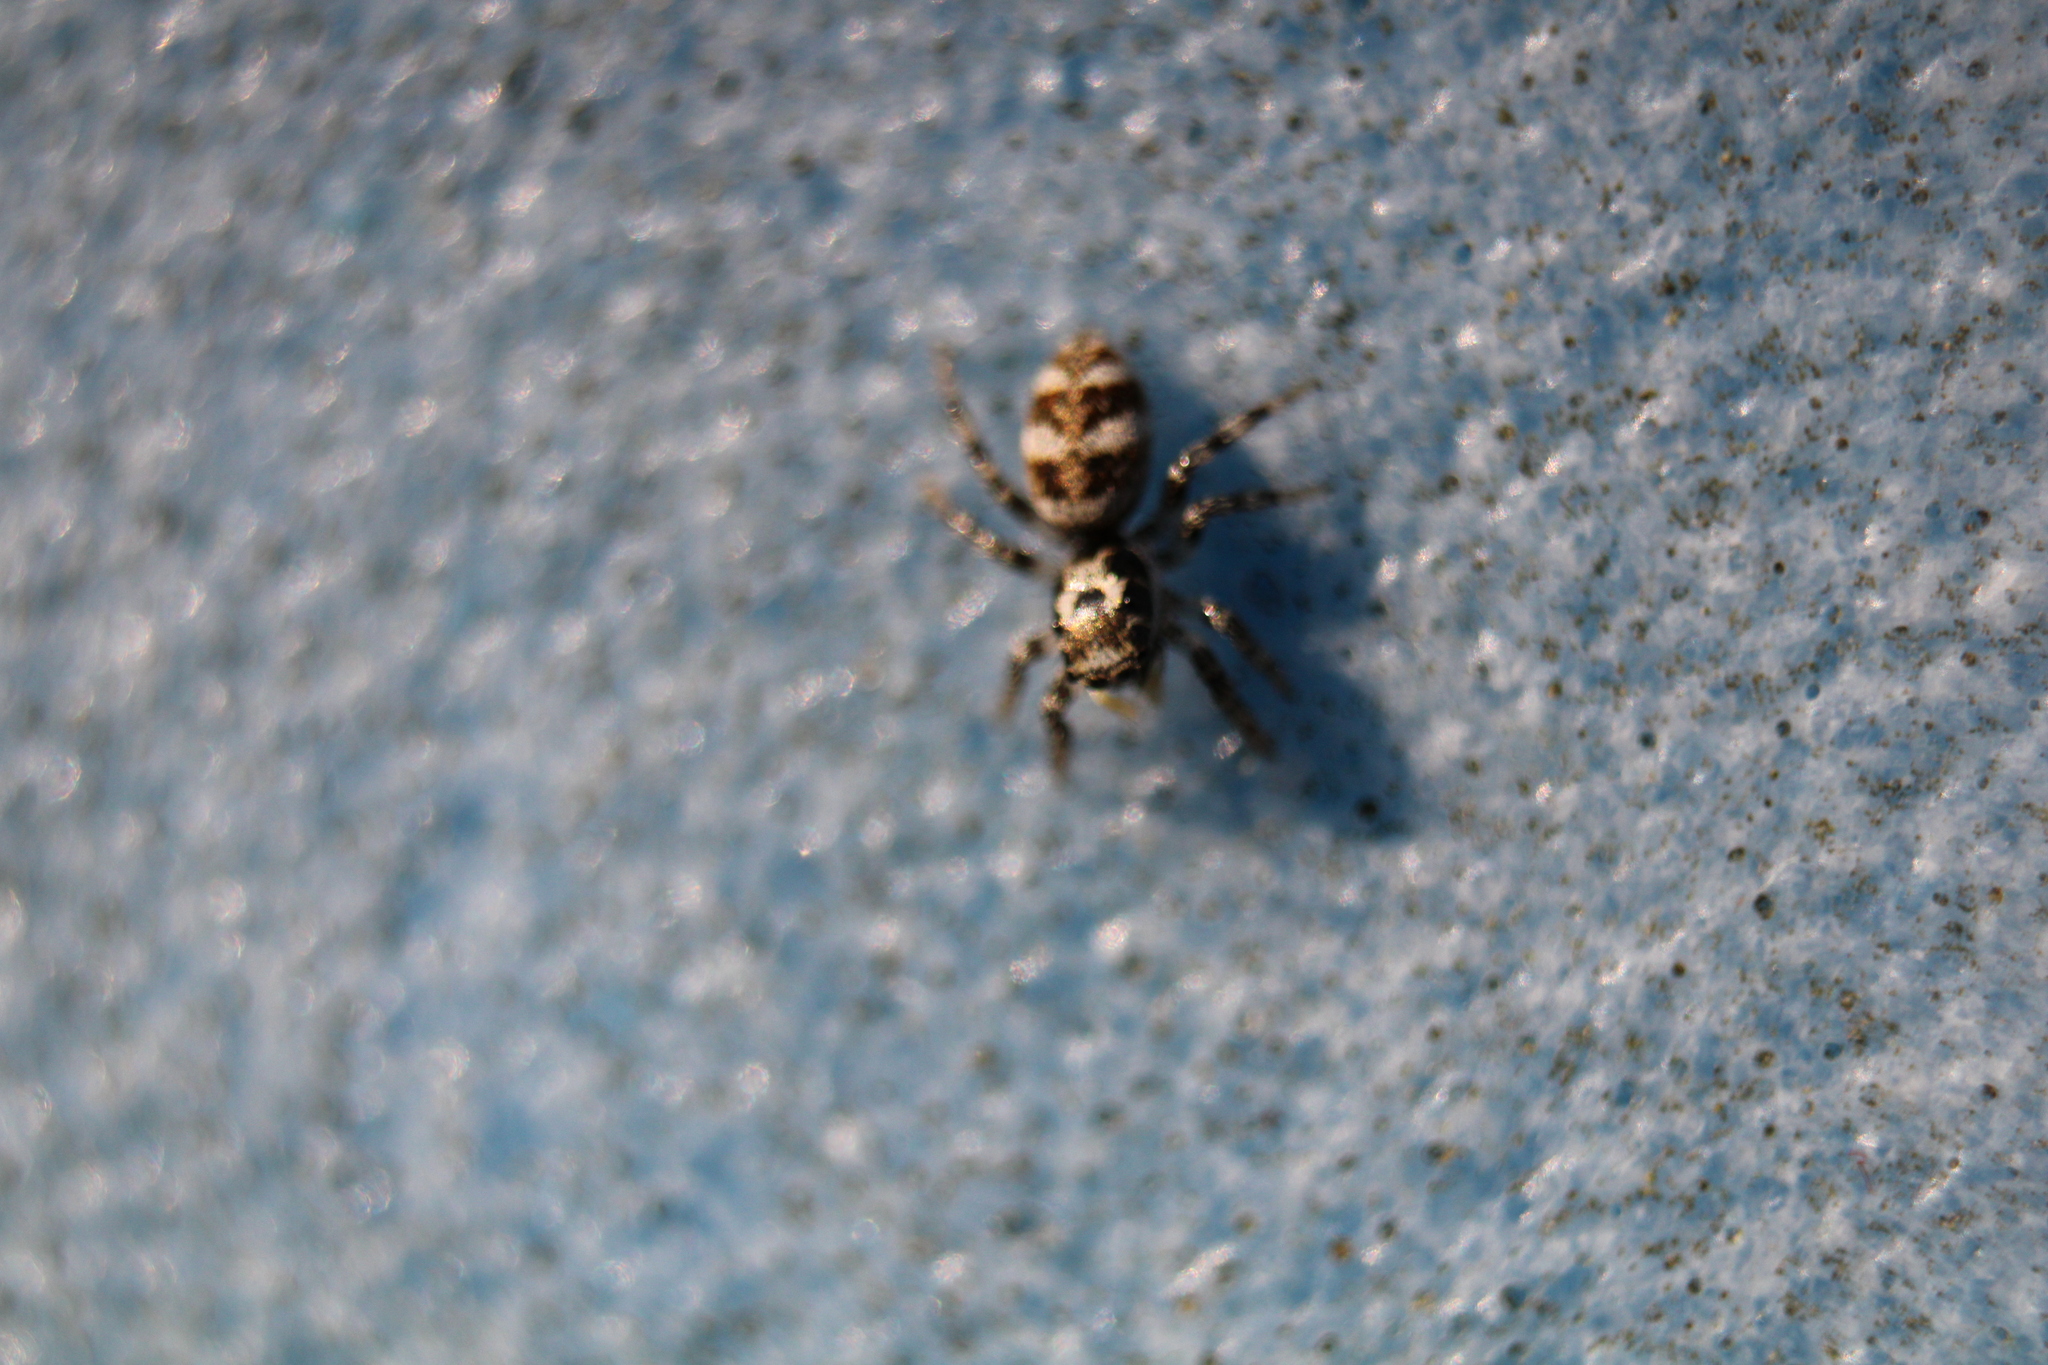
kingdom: Animalia
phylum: Arthropoda
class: Arachnida
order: Araneae
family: Salticidae
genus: Salticus
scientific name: Salticus scenicus
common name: Zebra jumper
